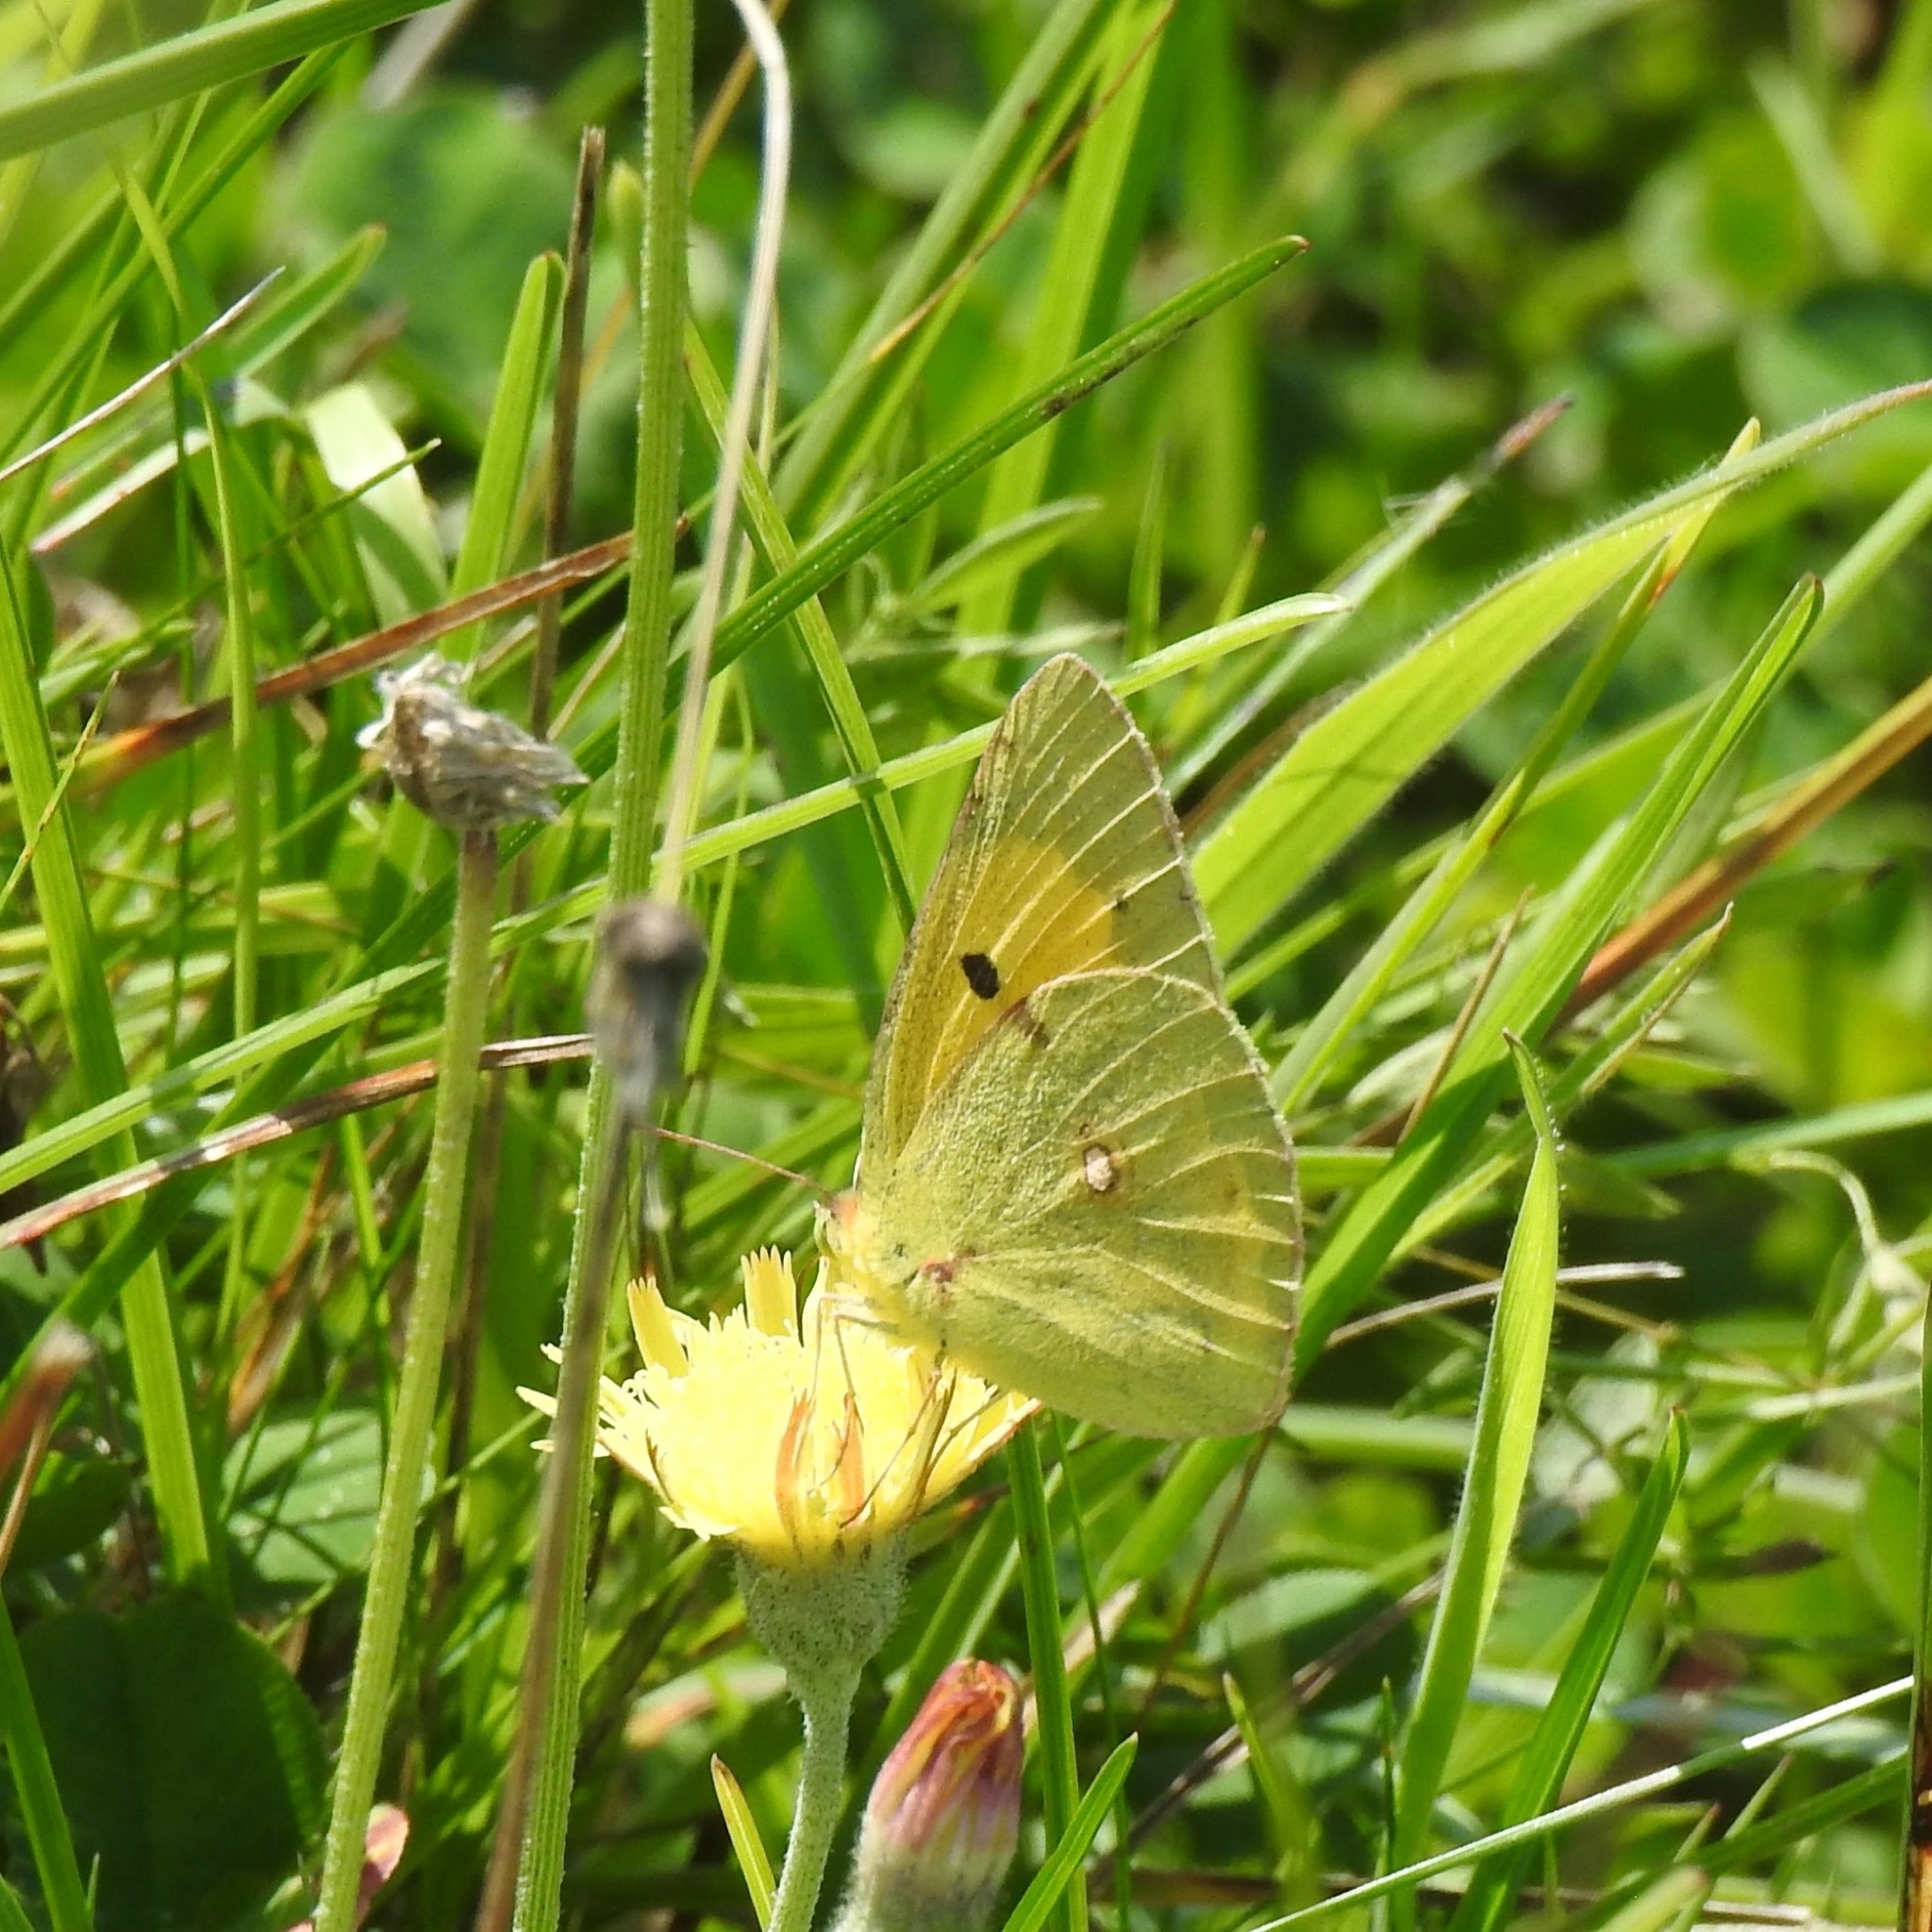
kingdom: Animalia
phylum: Arthropoda
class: Insecta
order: Lepidoptera
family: Pieridae
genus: Colias
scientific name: Colias croceus
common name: Clouded yellow
